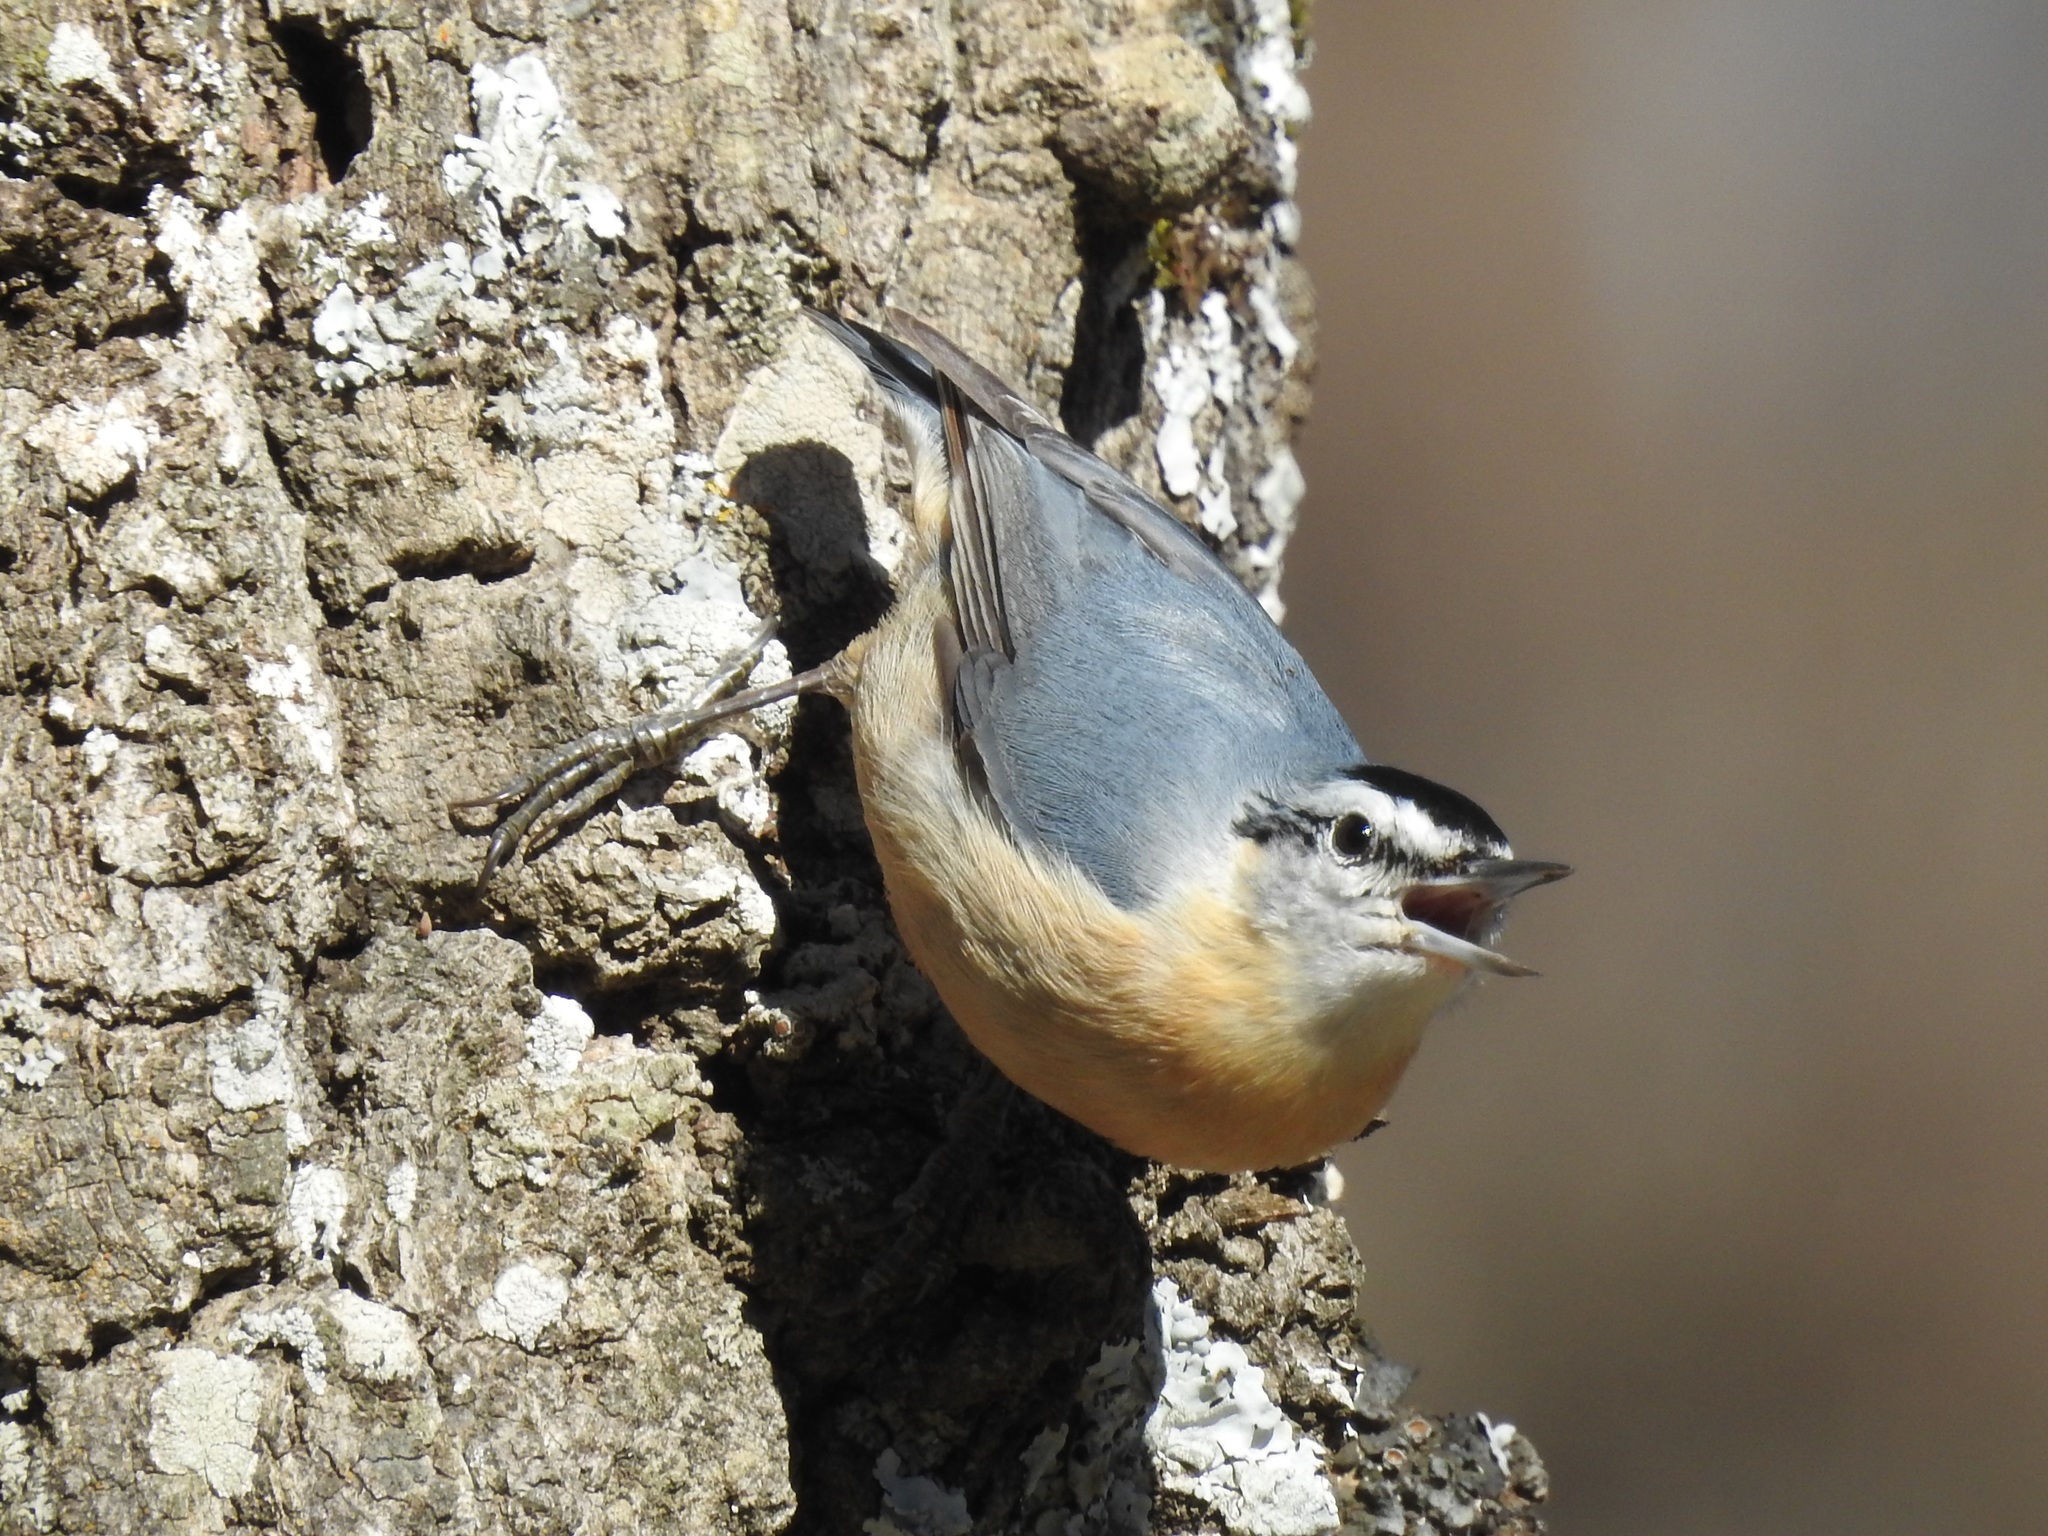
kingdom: Animalia
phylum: Chordata
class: Aves
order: Passeriformes
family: Sittidae
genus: Sitta
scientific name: Sitta ledanti
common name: Algerian nuthatch
